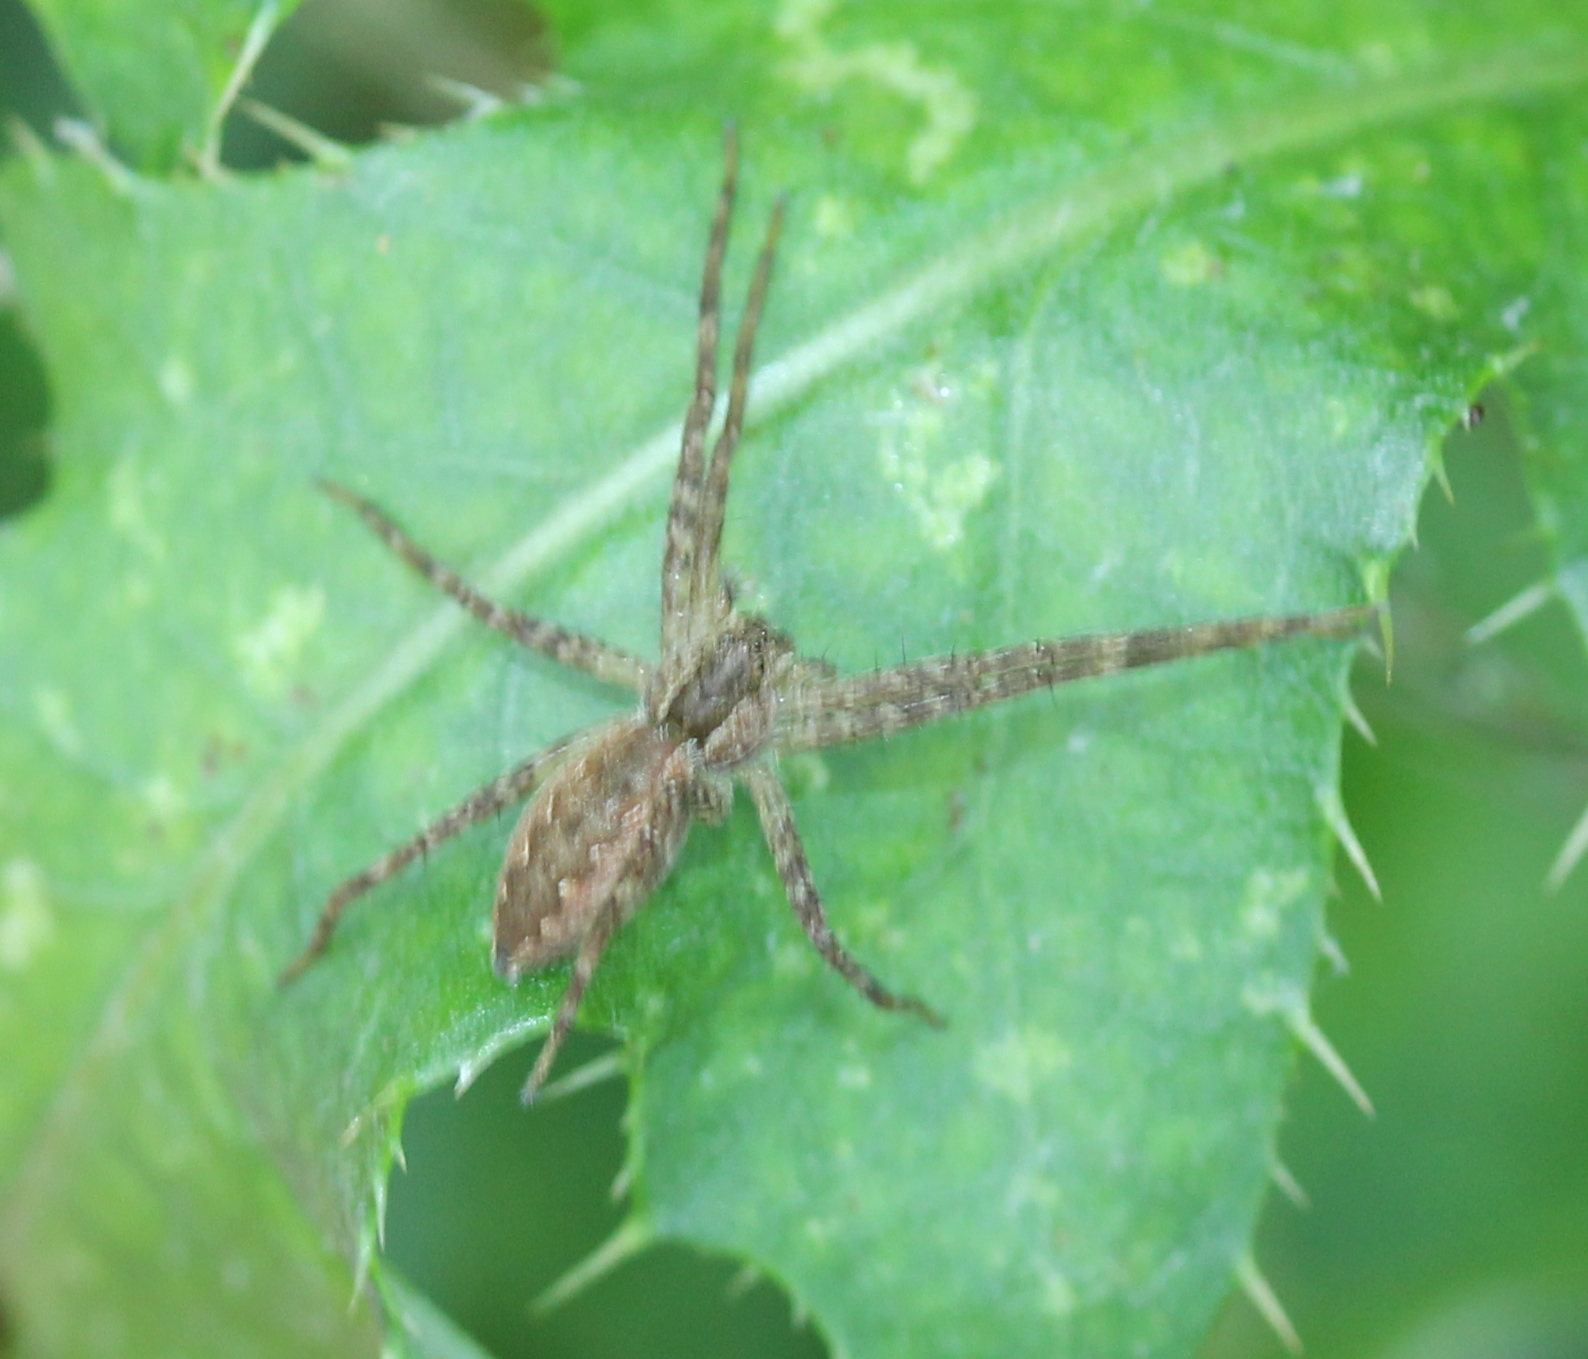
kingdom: Animalia
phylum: Arthropoda
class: Arachnida
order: Araneae
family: Pisauridae
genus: Pisaurina
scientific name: Pisaurina mira
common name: American nursery web spider
